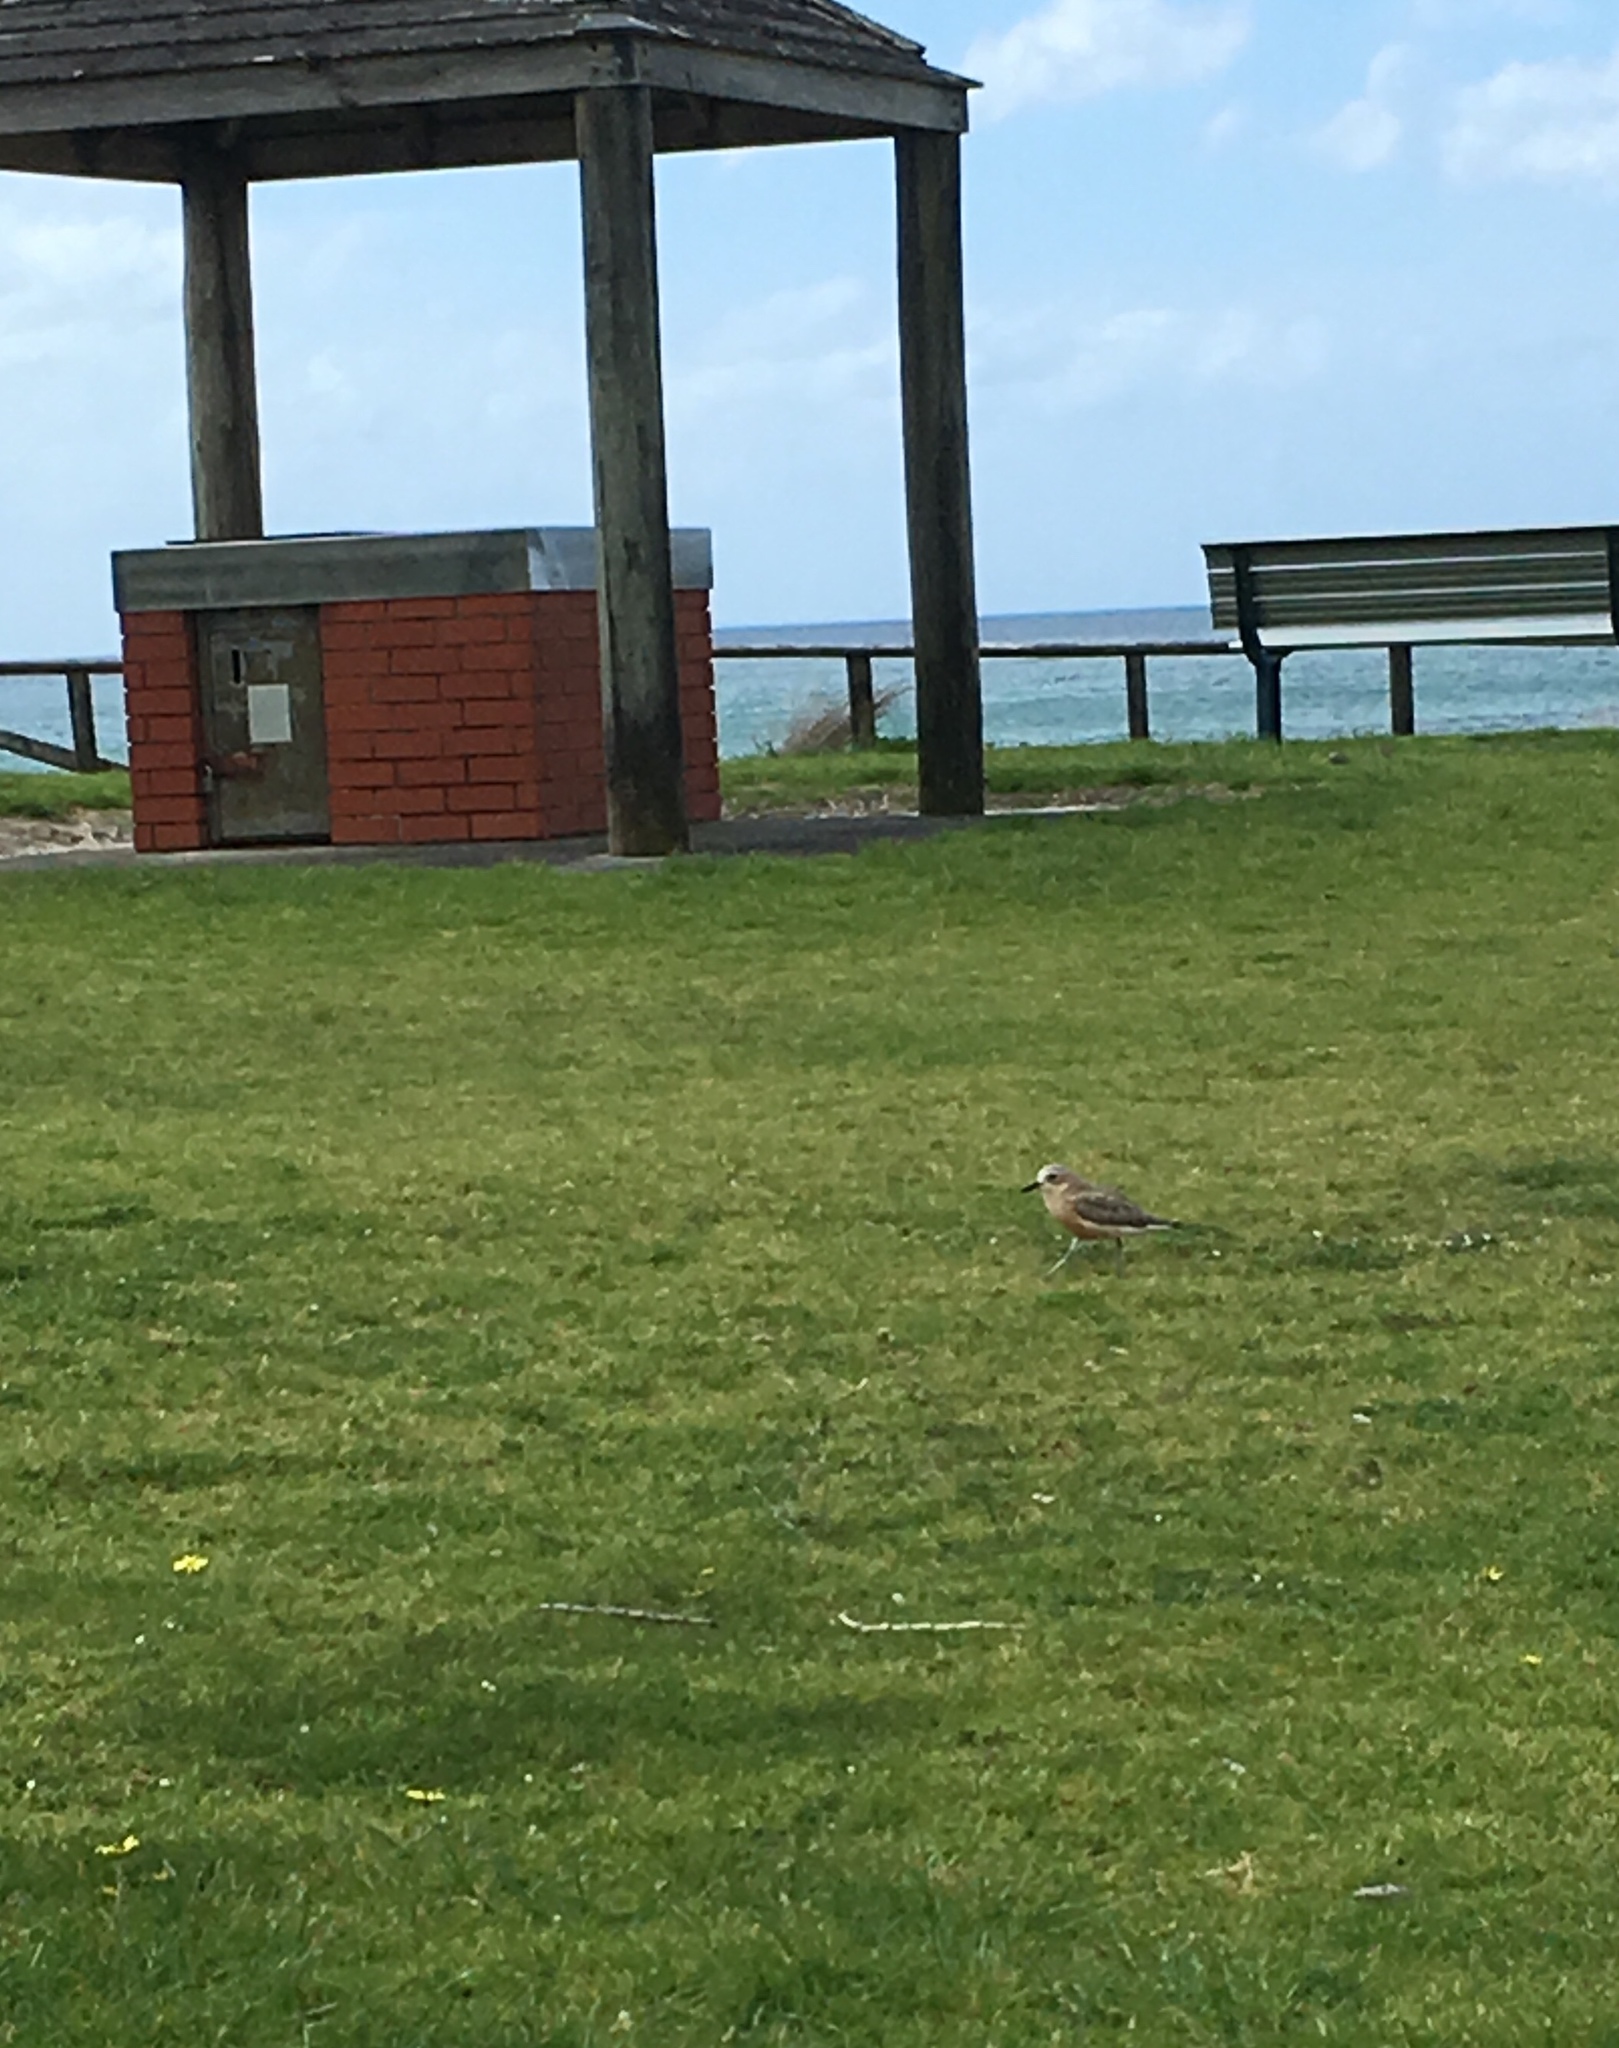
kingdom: Animalia
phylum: Chordata
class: Aves
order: Charadriiformes
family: Charadriidae
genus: Anarhynchus
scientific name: Anarhynchus
